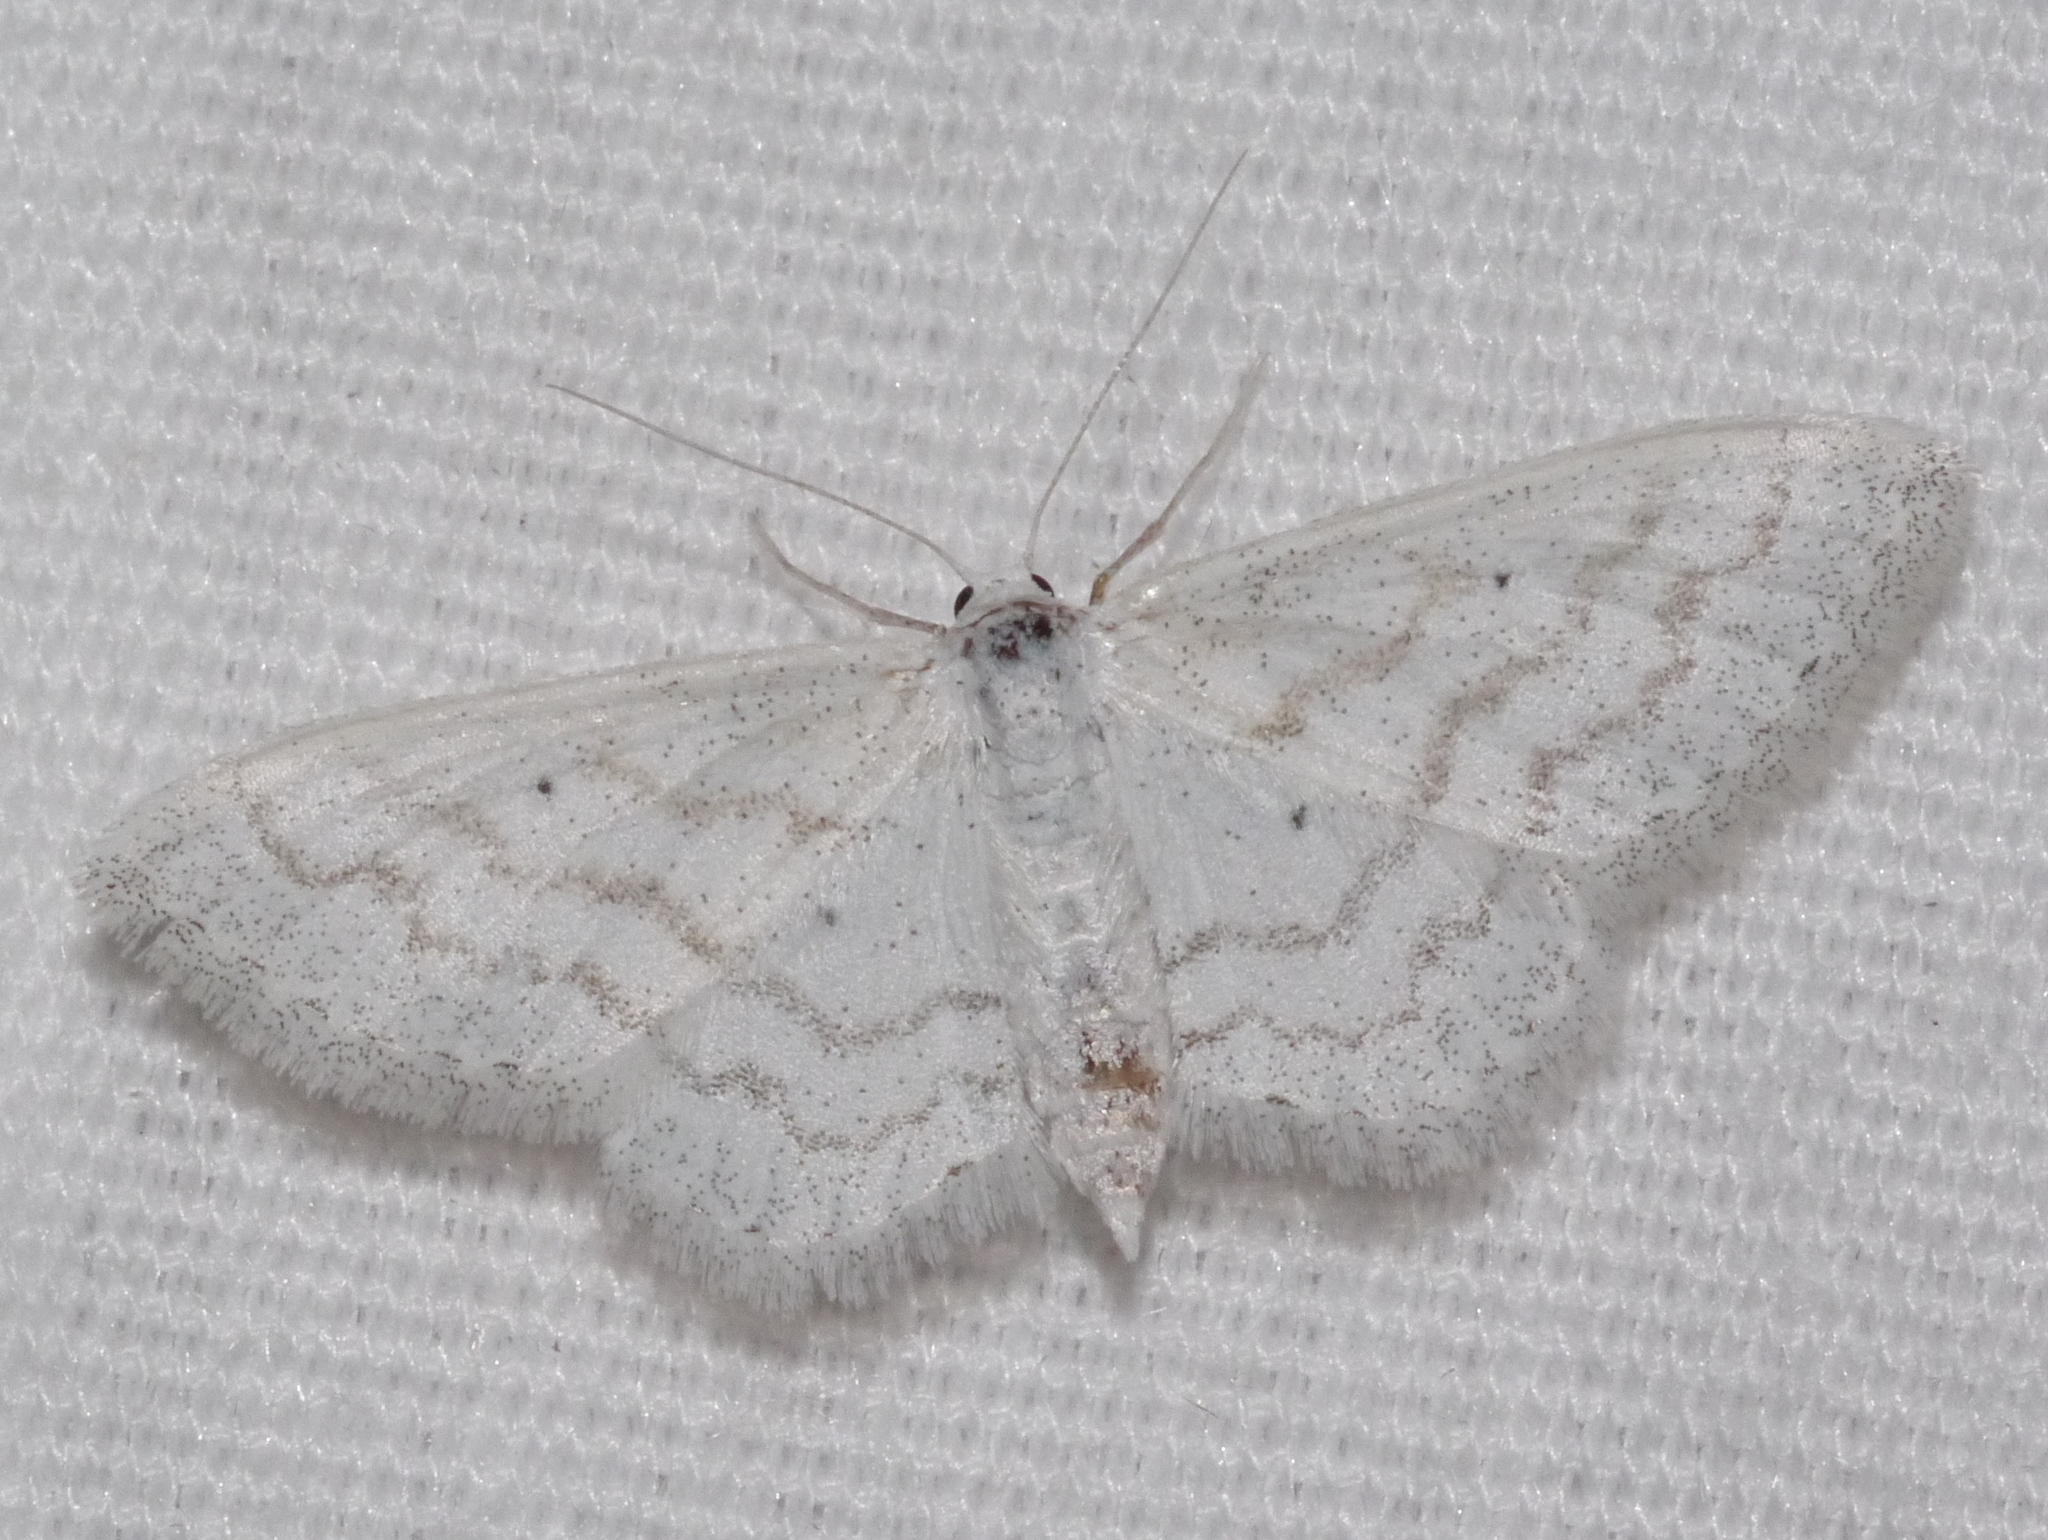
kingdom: Animalia
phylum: Arthropoda
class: Insecta
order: Lepidoptera
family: Geometridae
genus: Lobocleta
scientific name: Lobocleta peralbata
